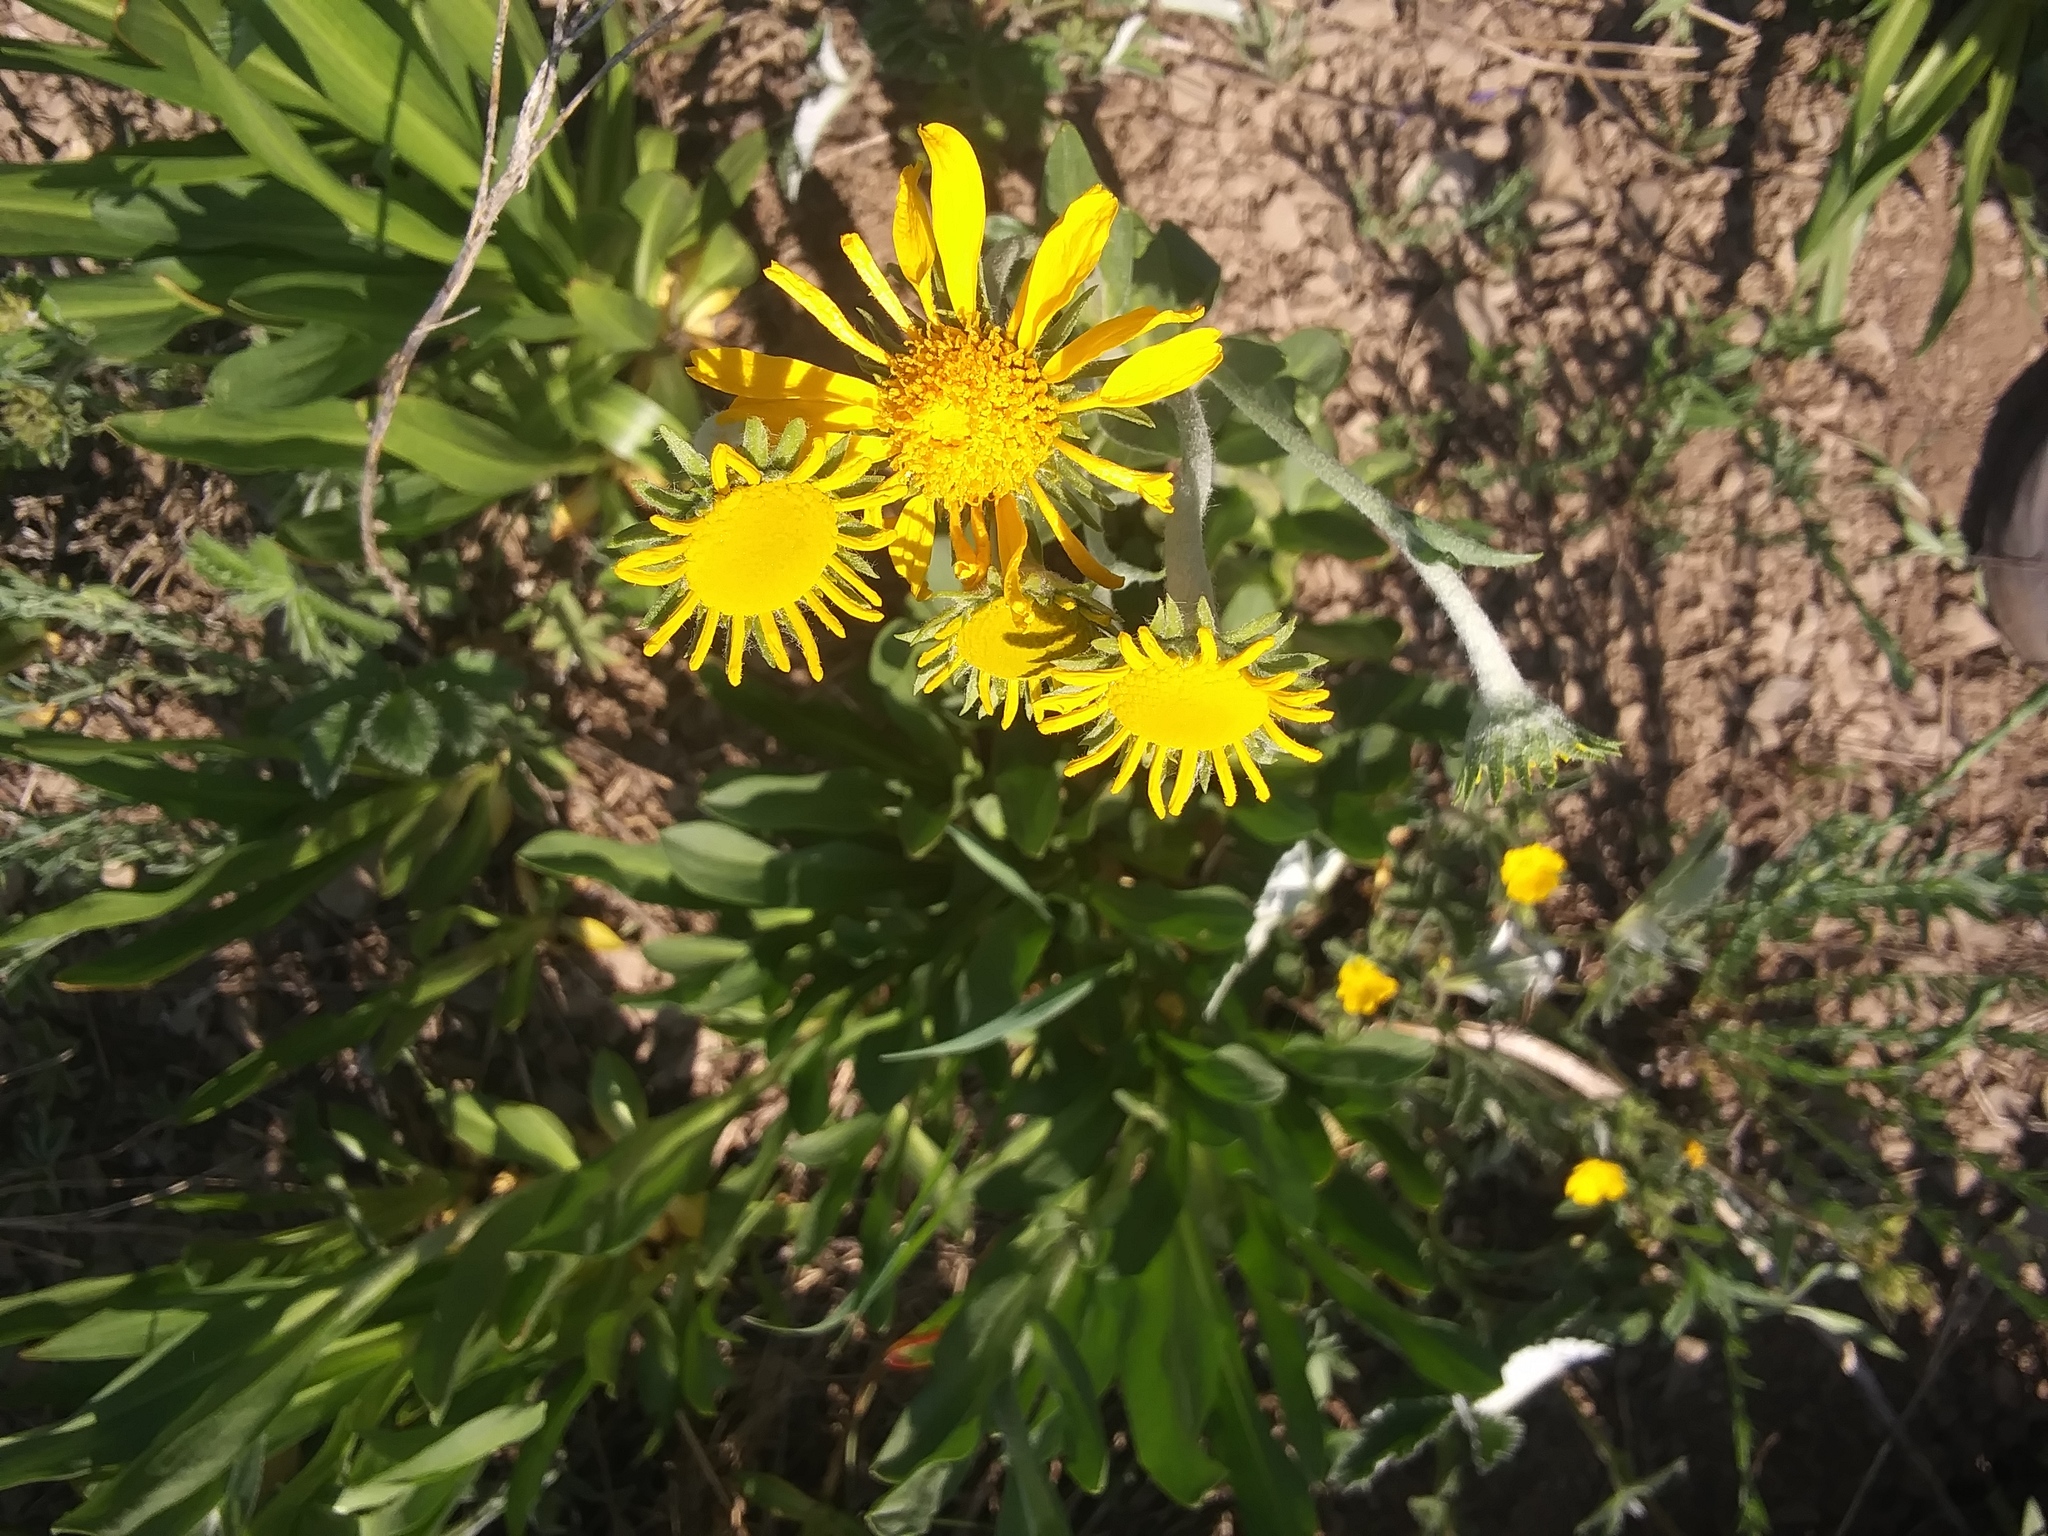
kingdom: Plantae
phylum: Tracheophyta
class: Magnoliopsida
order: Asterales
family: Asteraceae
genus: Hymenoxys
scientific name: Hymenoxys hoopesii
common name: Orange-sneezeweed
